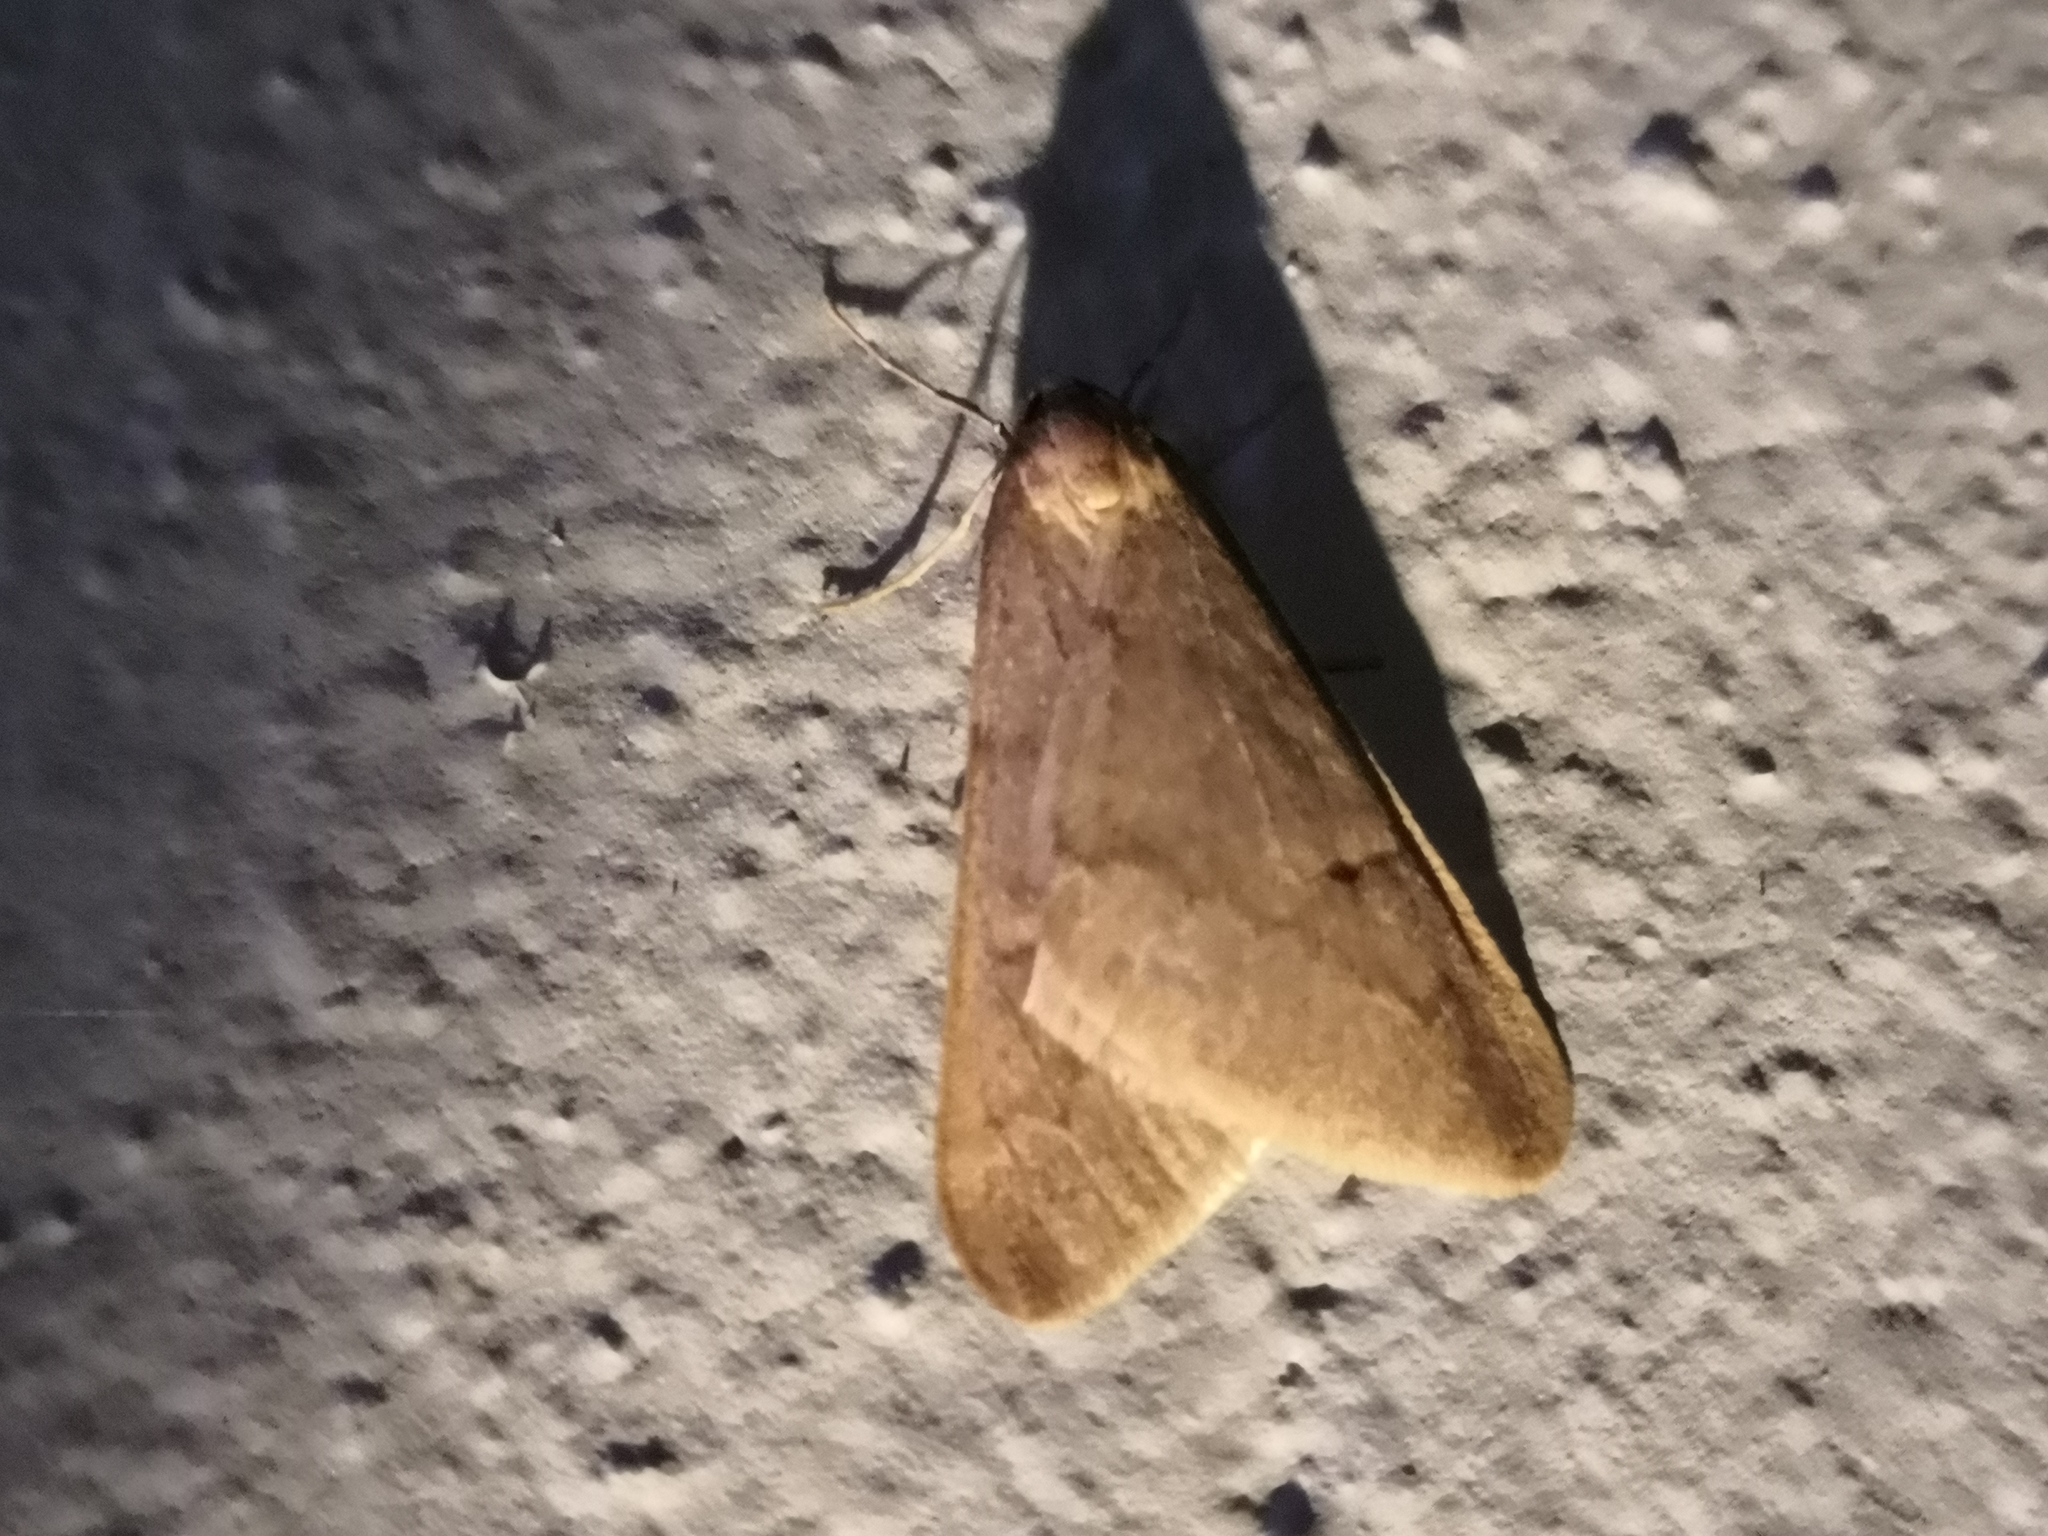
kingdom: Animalia
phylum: Arthropoda
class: Insecta
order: Lepidoptera
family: Geometridae
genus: Alsophila
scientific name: Alsophila aceraria
